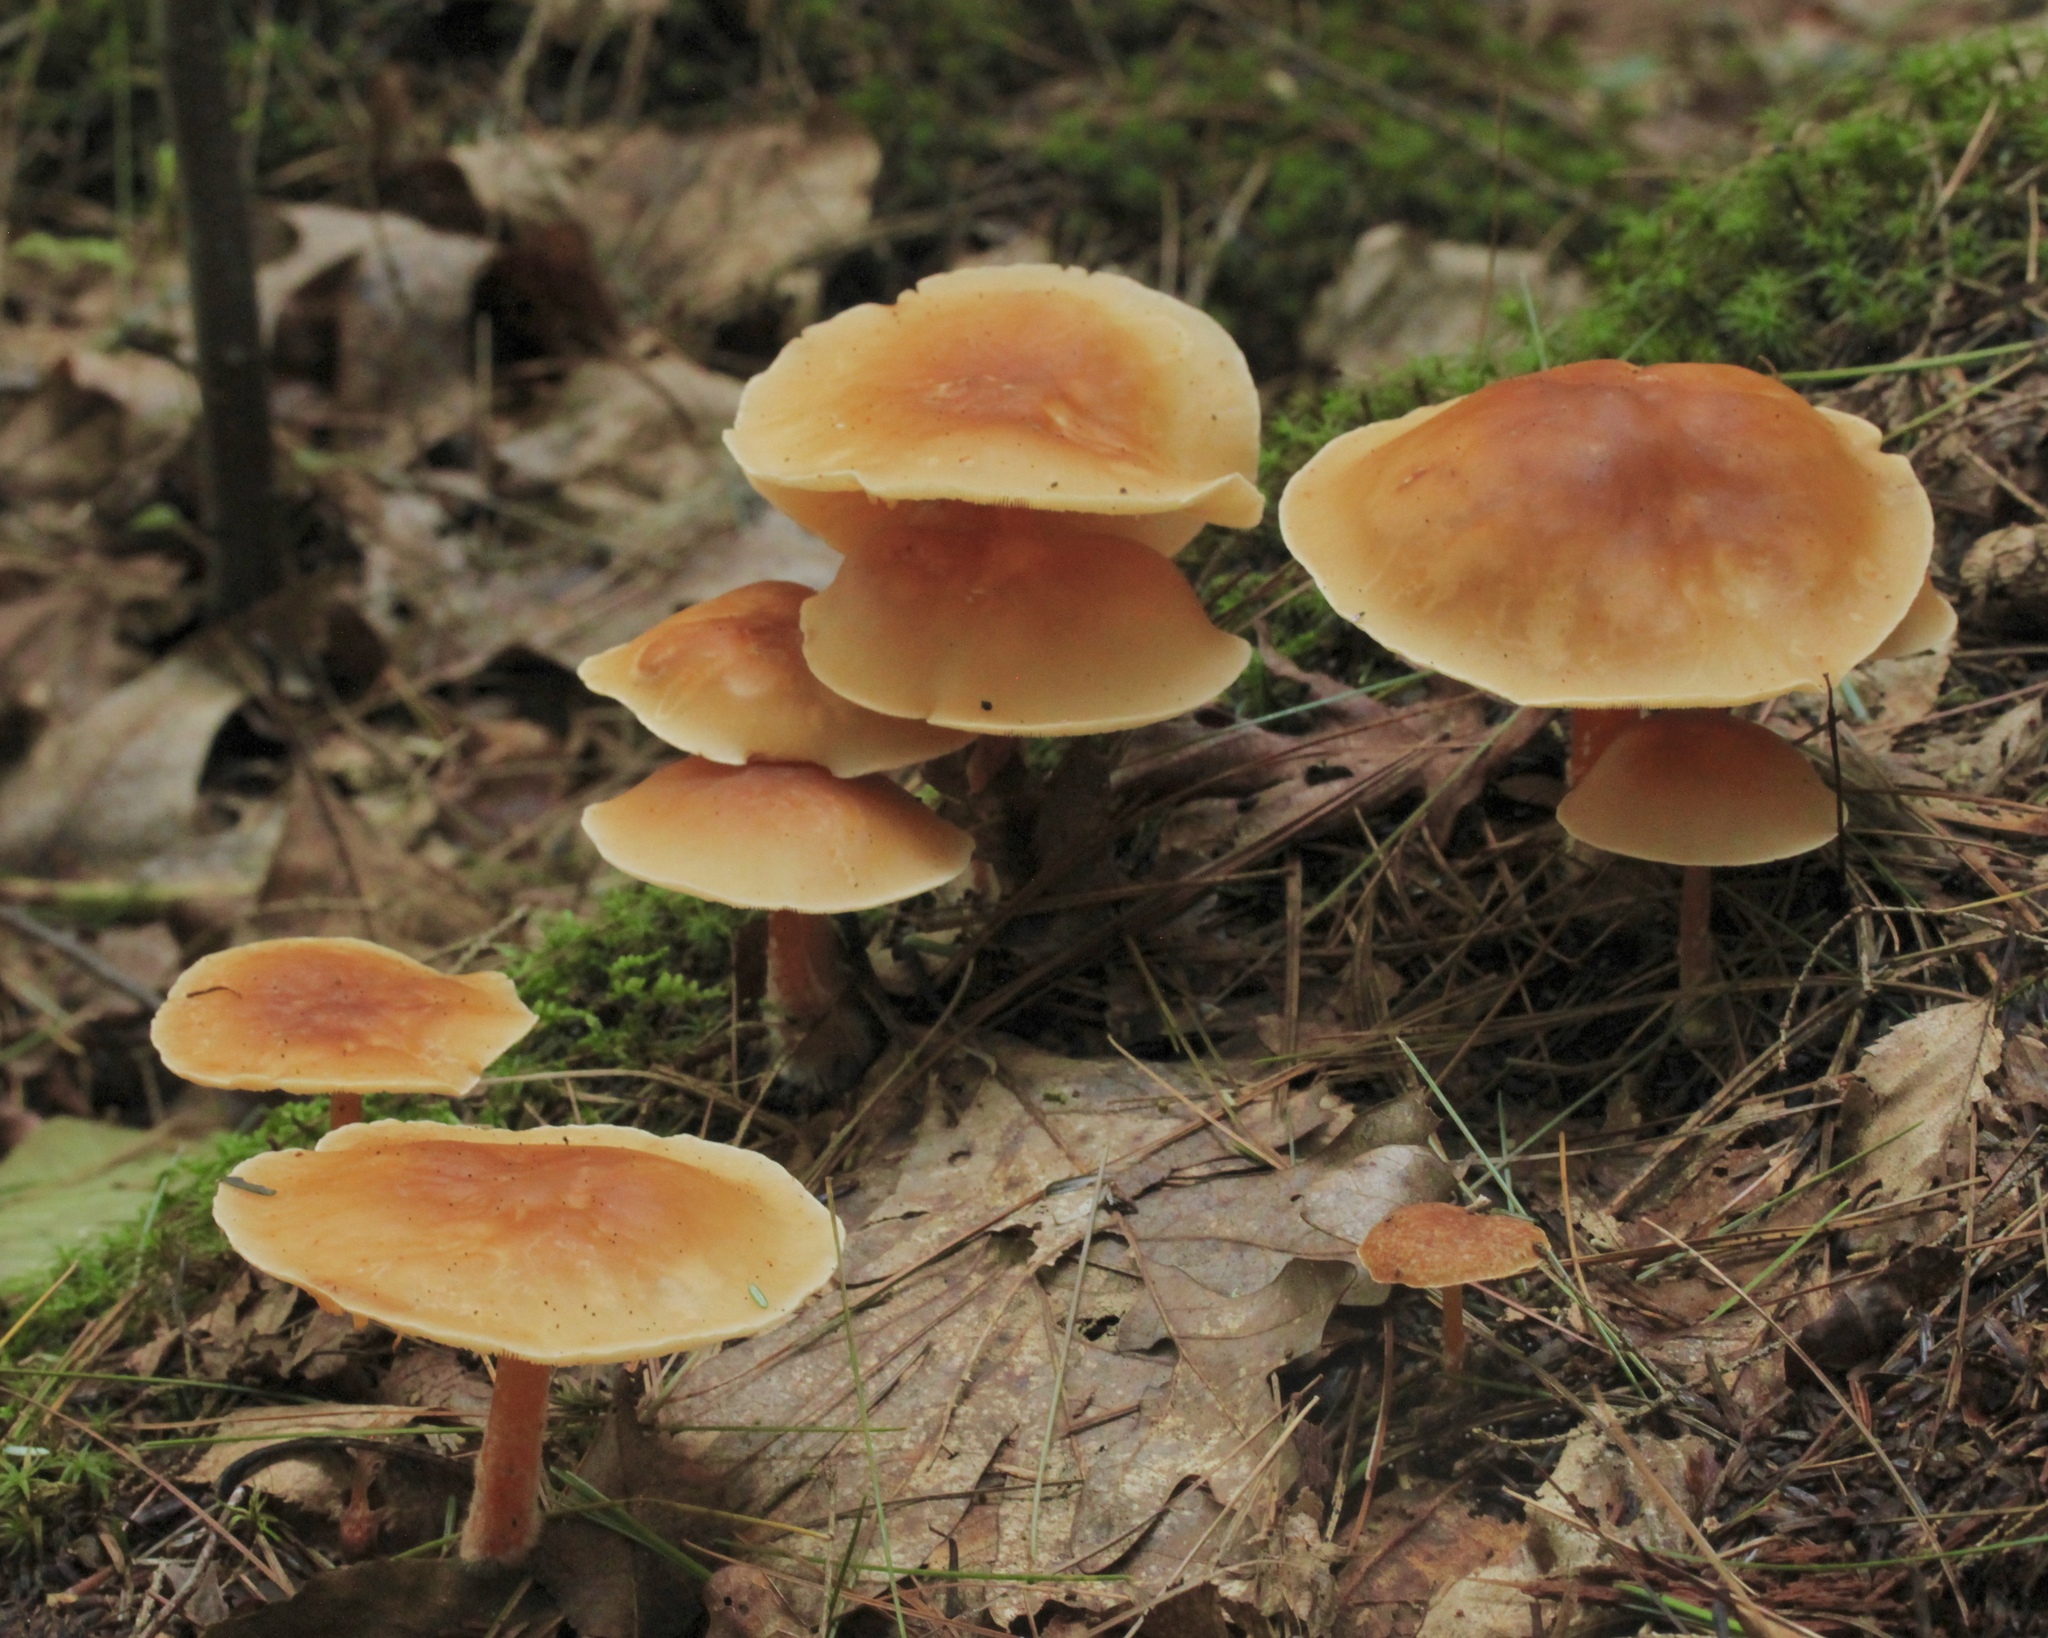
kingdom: Fungi
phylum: Basidiomycota
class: Agaricomycetes
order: Agaricales
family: Omphalotaceae
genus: Gymnopus
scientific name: Gymnopus dryophilus
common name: Penny top
